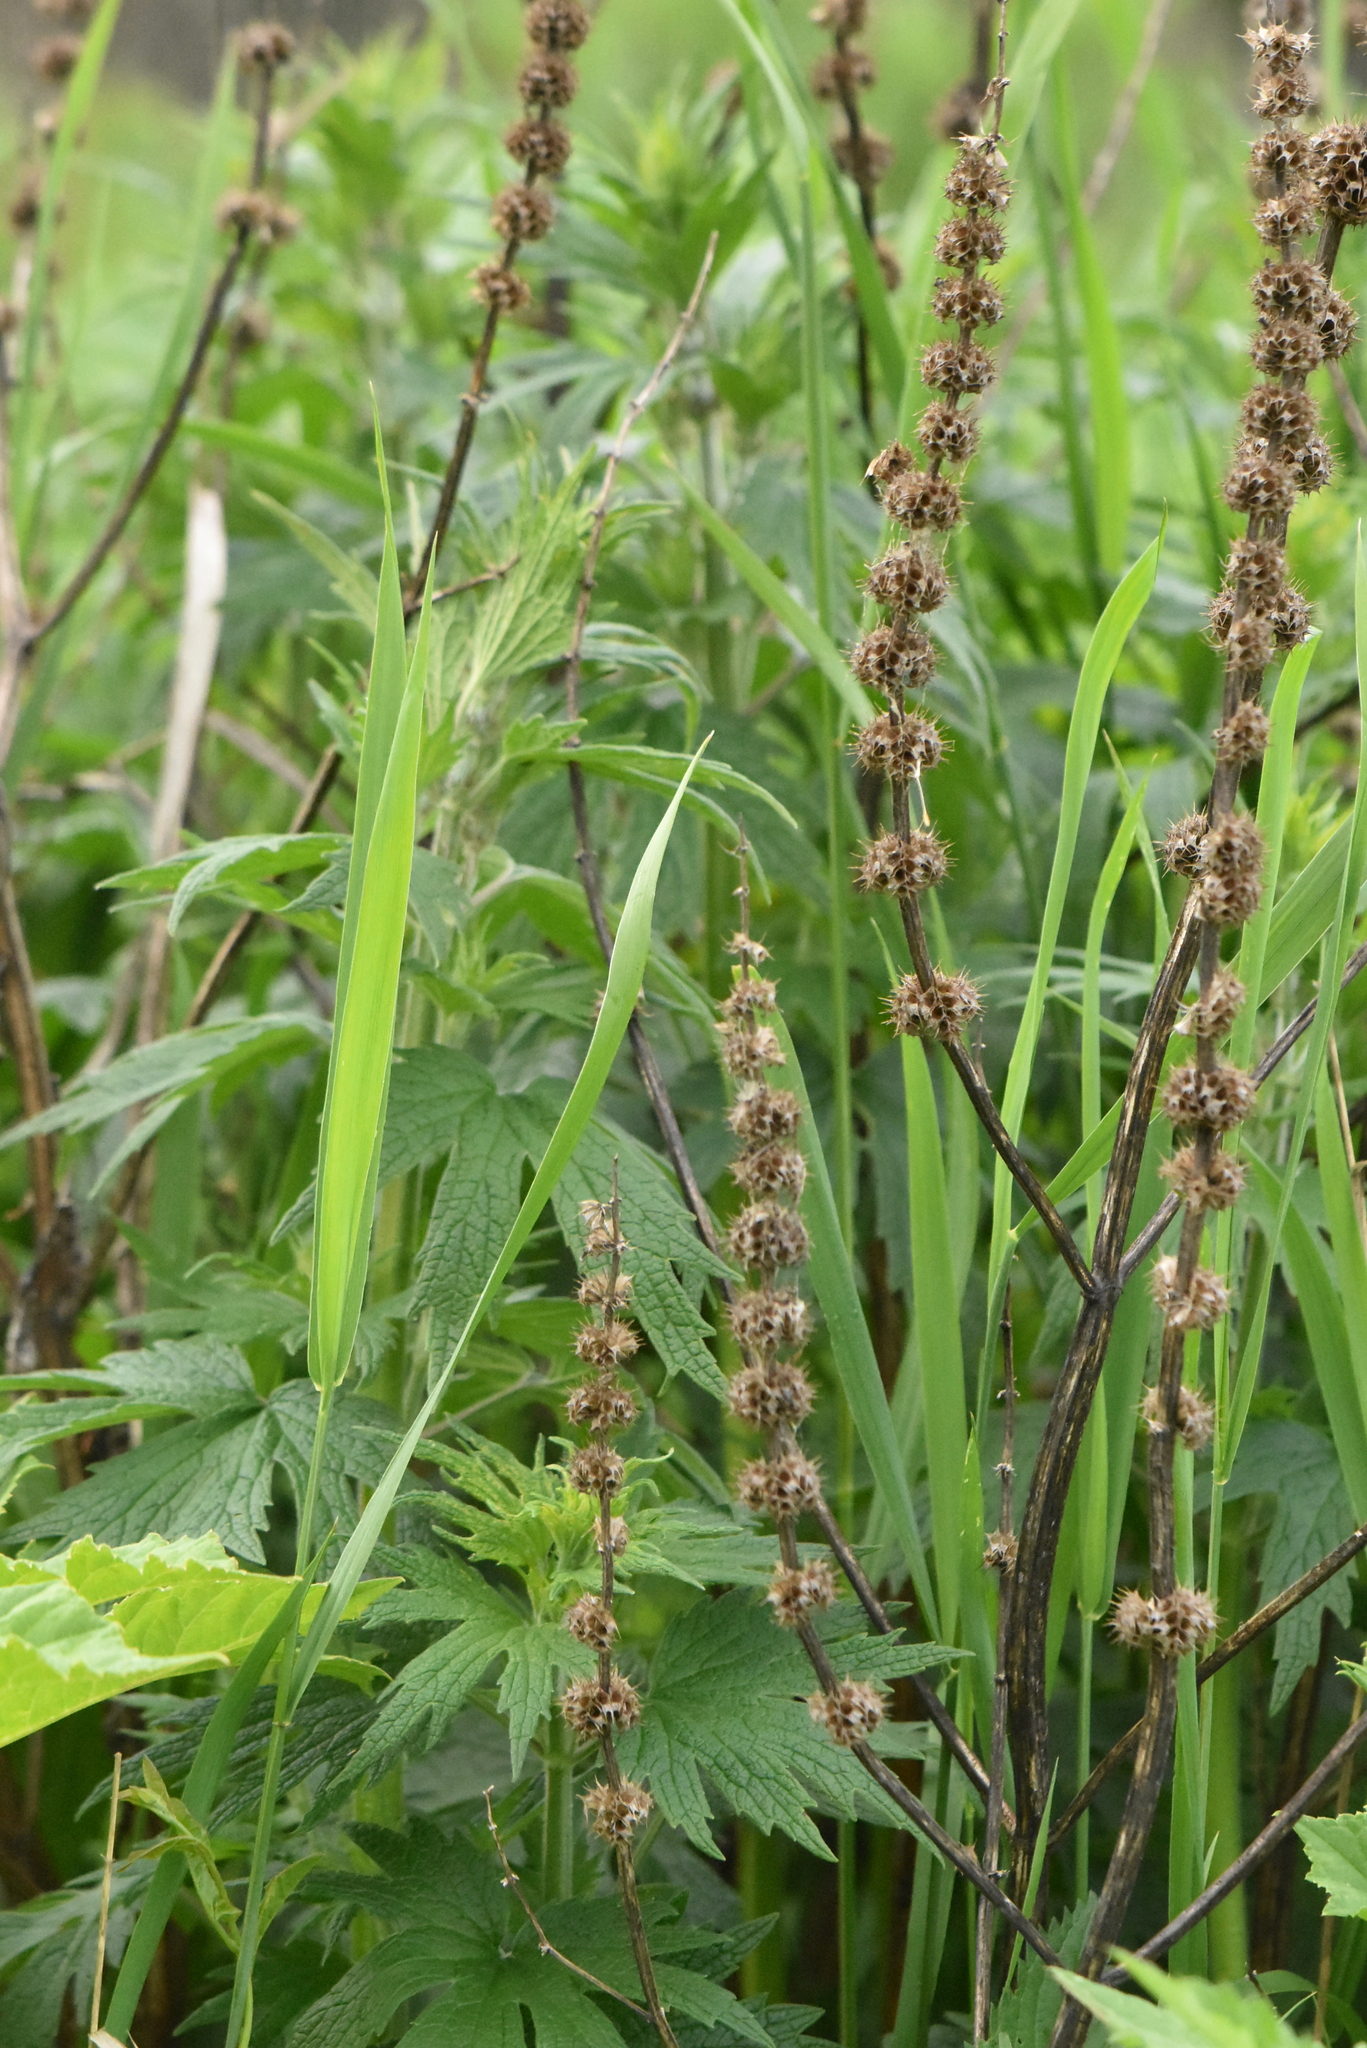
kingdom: Plantae
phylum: Tracheophyta
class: Magnoliopsida
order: Lamiales
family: Lamiaceae
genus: Leonurus
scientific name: Leonurus quinquelobatus
